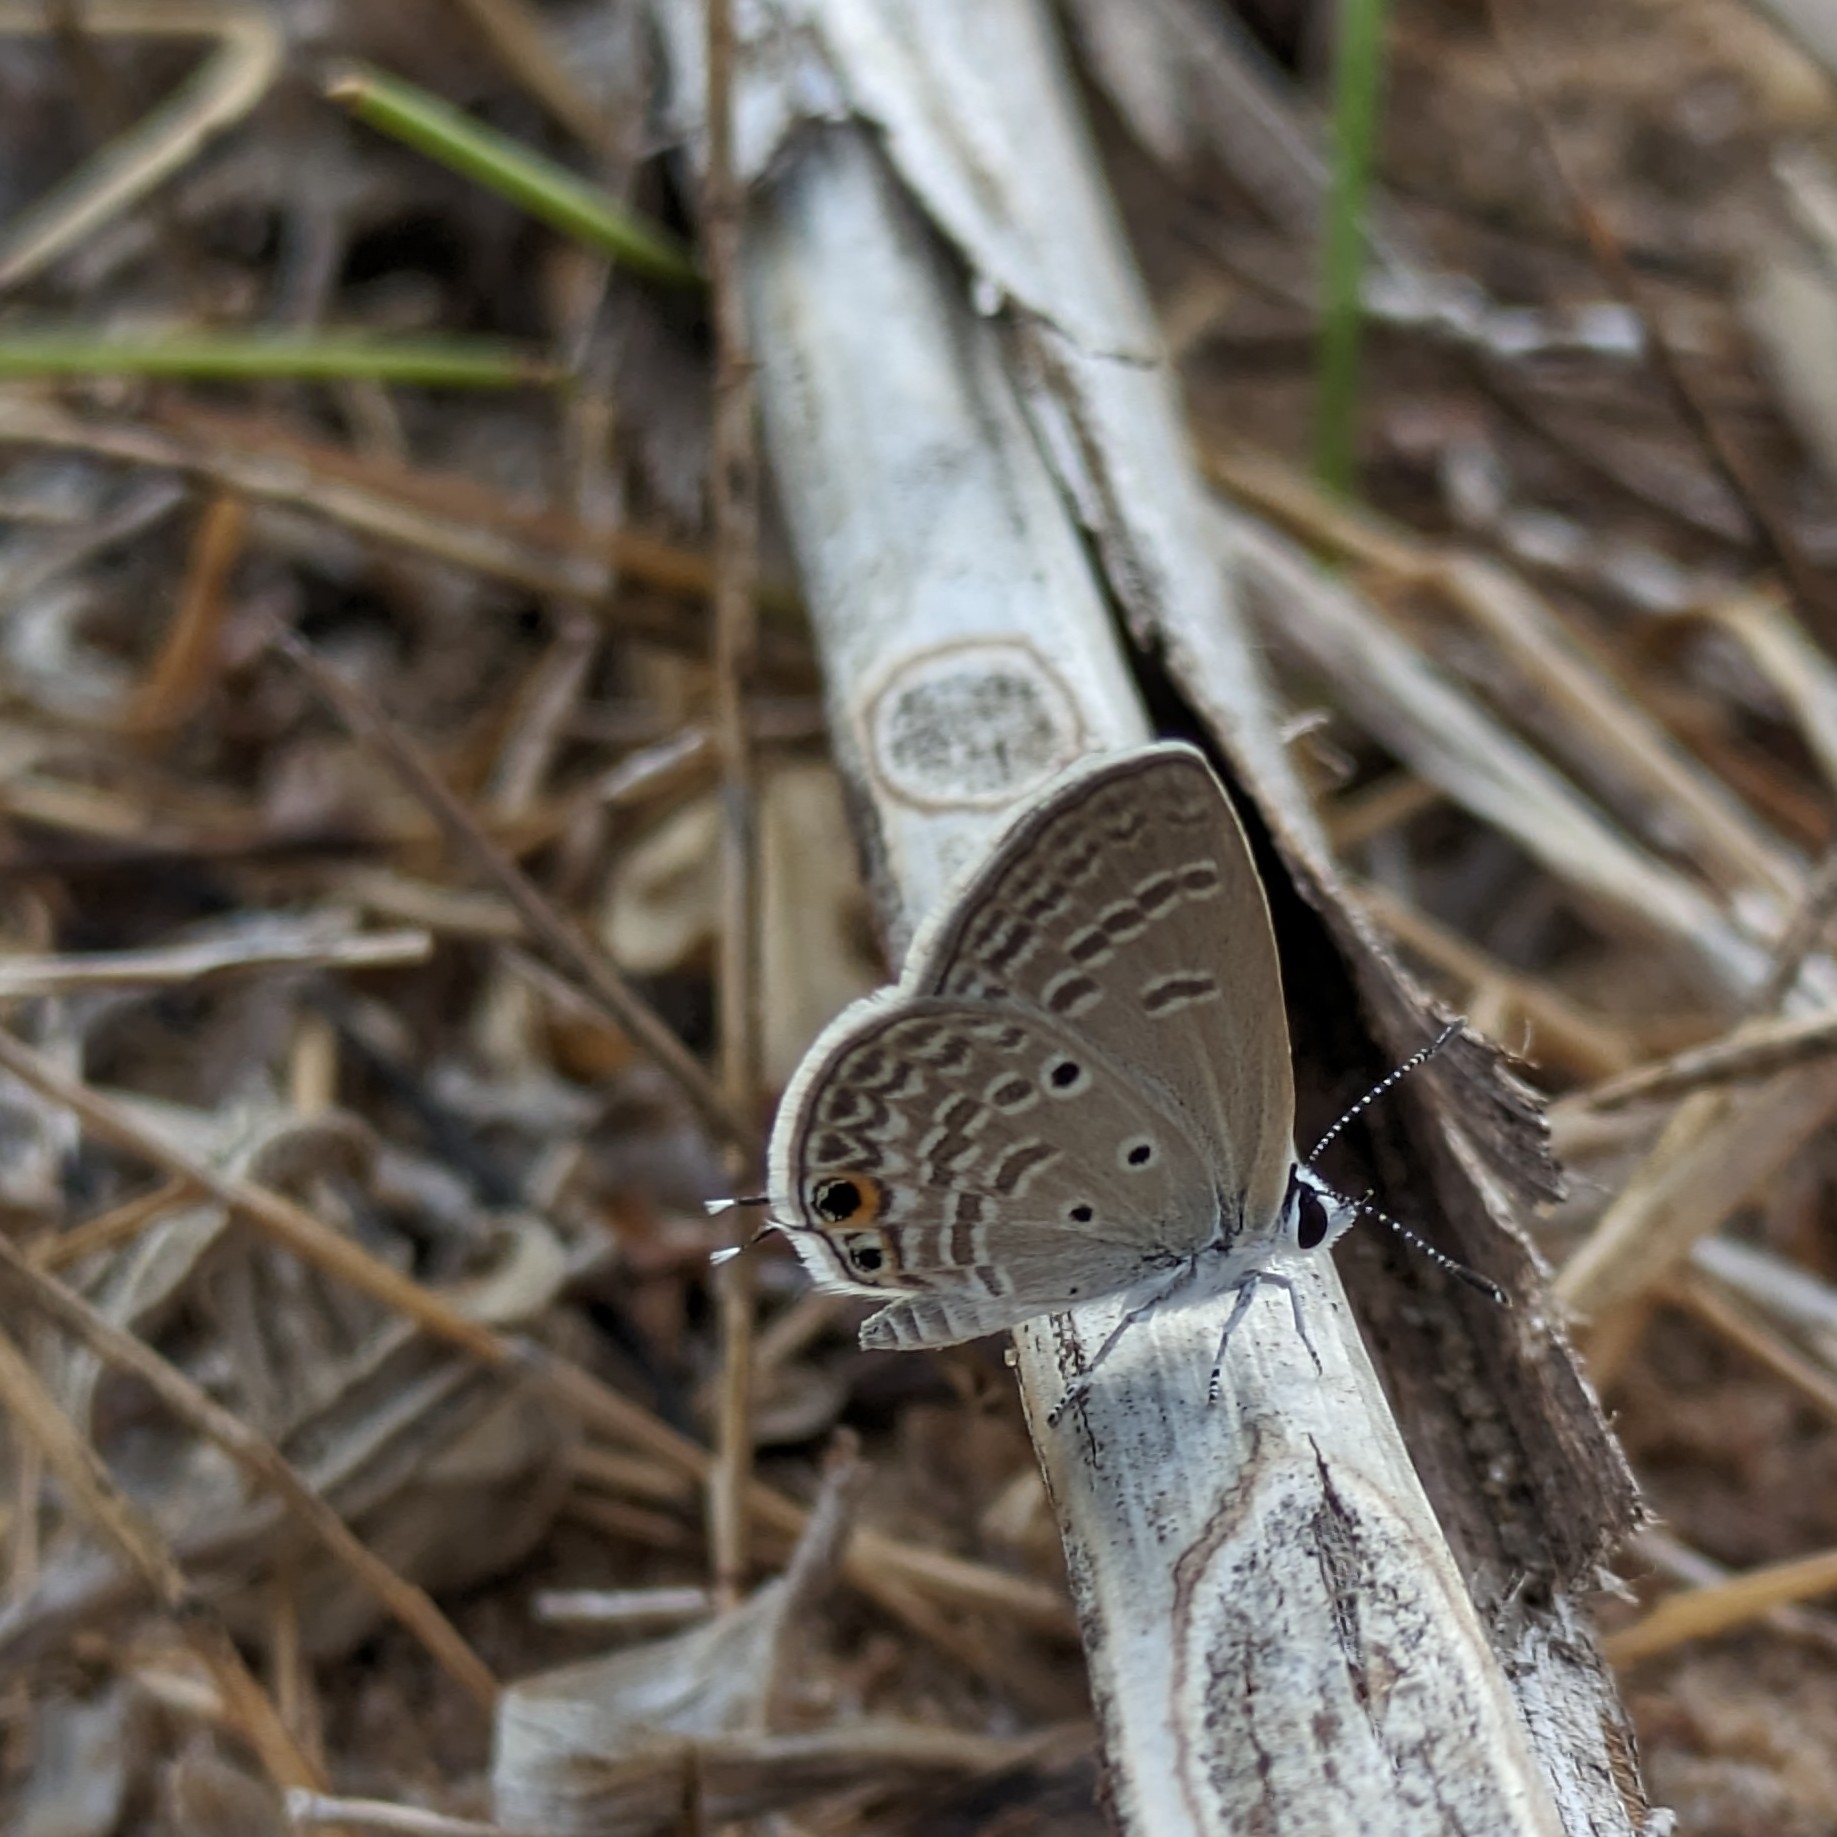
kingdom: Animalia
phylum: Arthropoda
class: Insecta
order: Lepidoptera
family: Lycaenidae
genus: Chilades
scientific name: Chilades parrhasius
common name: Small cupid
